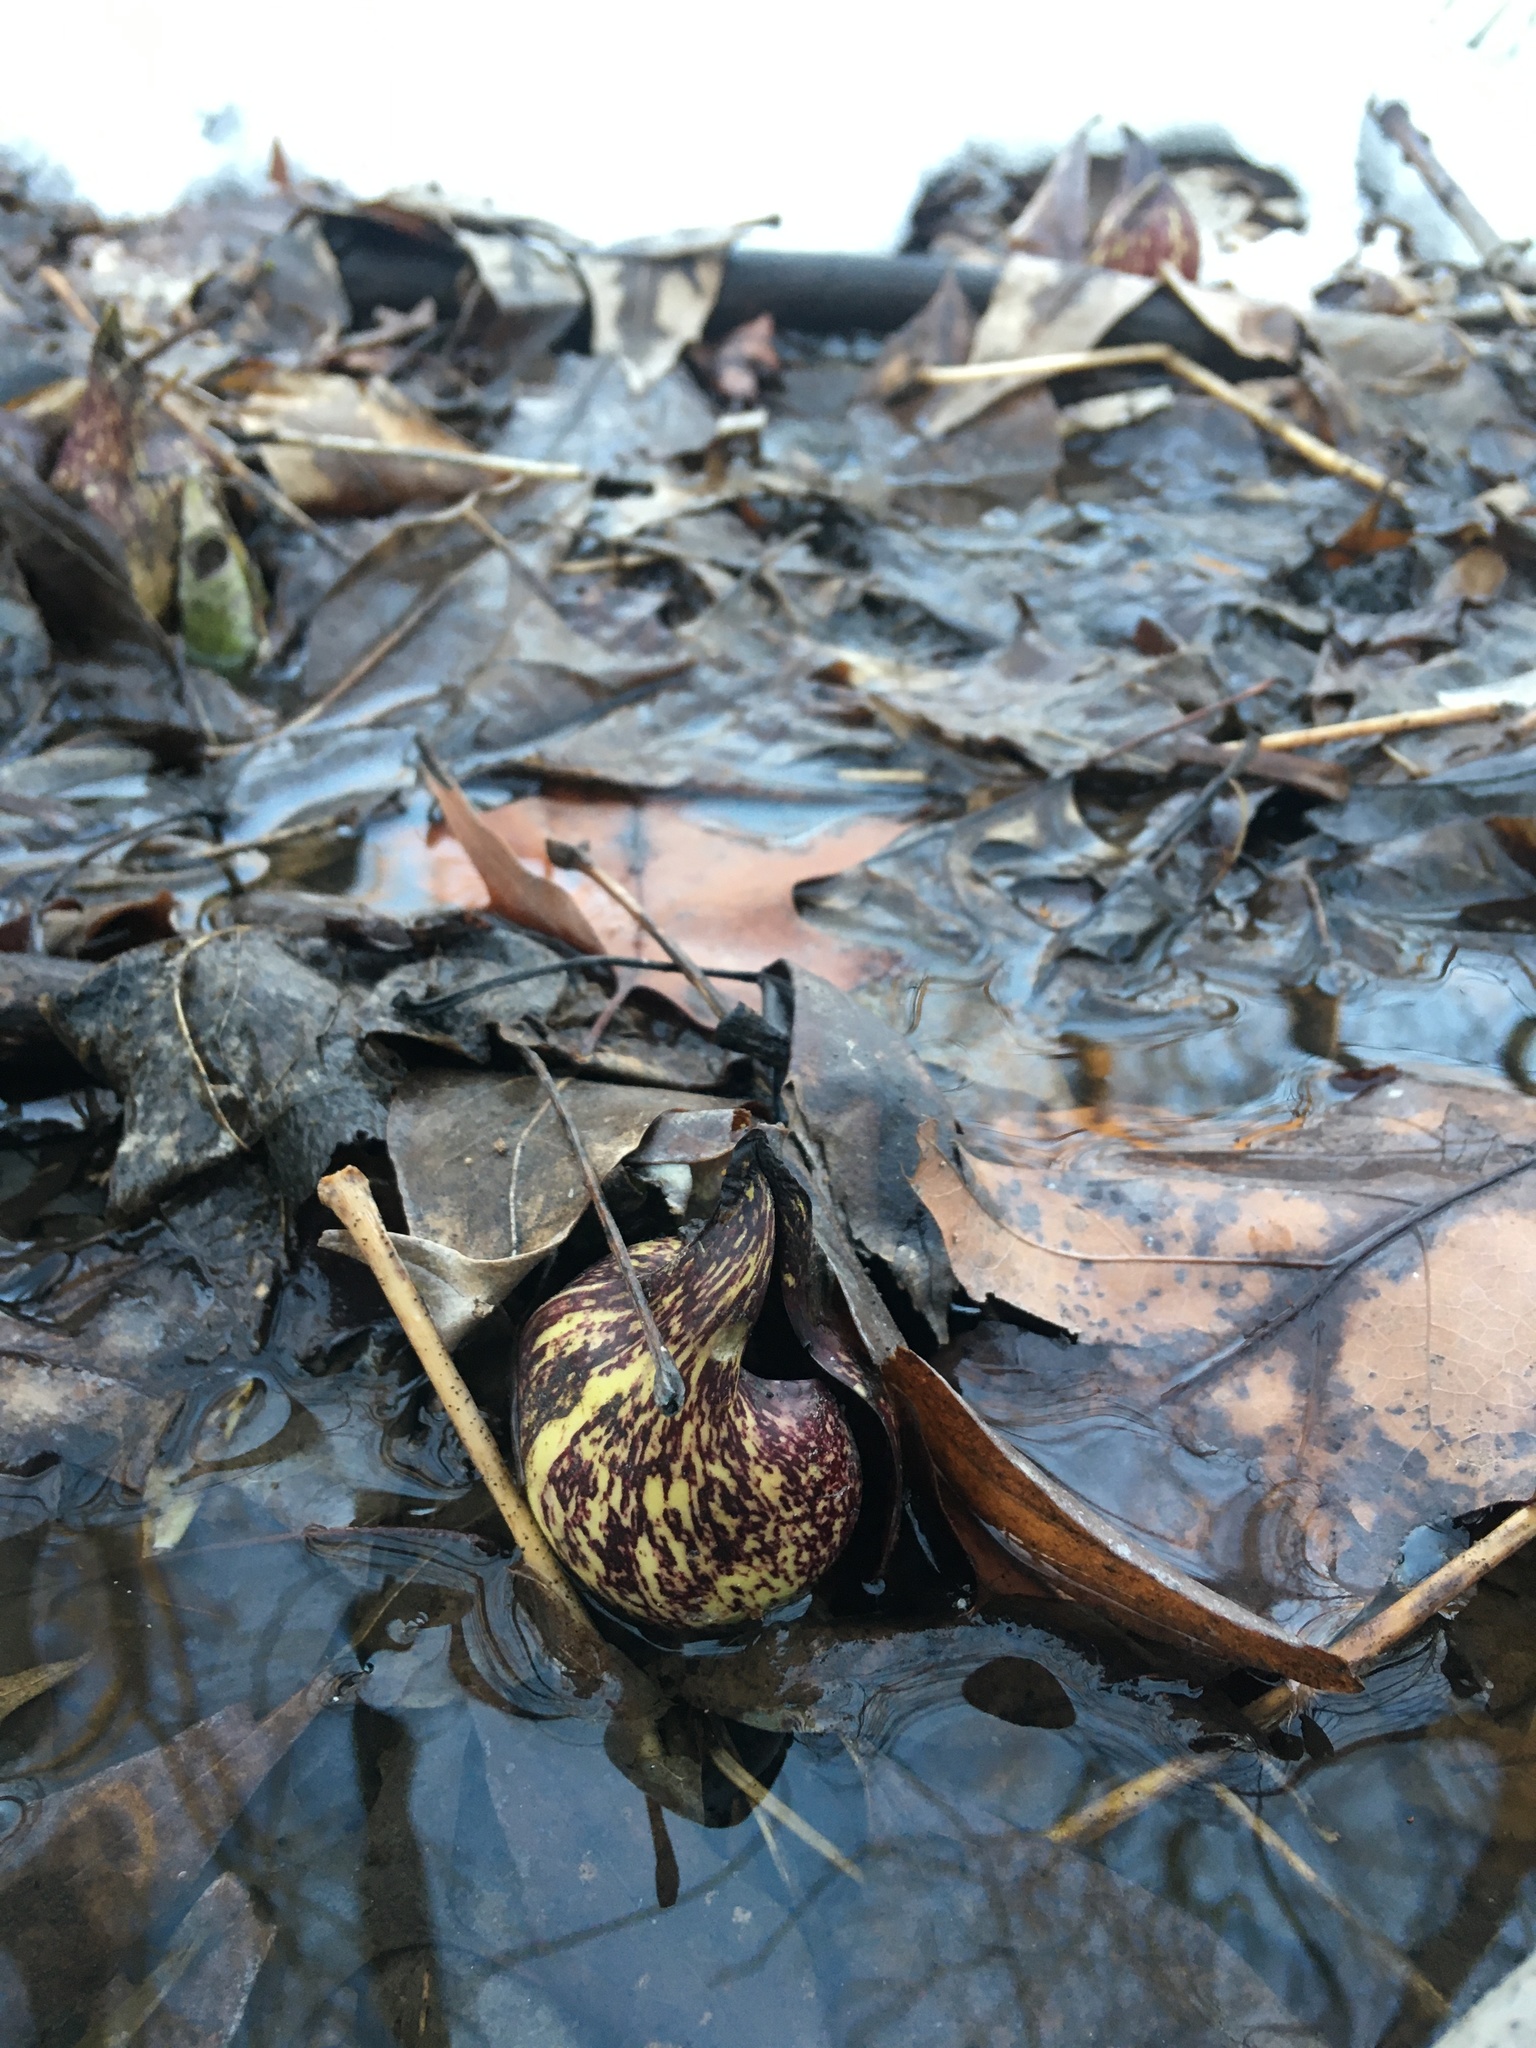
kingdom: Plantae
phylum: Tracheophyta
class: Liliopsida
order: Alismatales
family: Araceae
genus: Symplocarpus
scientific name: Symplocarpus foetidus
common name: Eastern skunk cabbage
